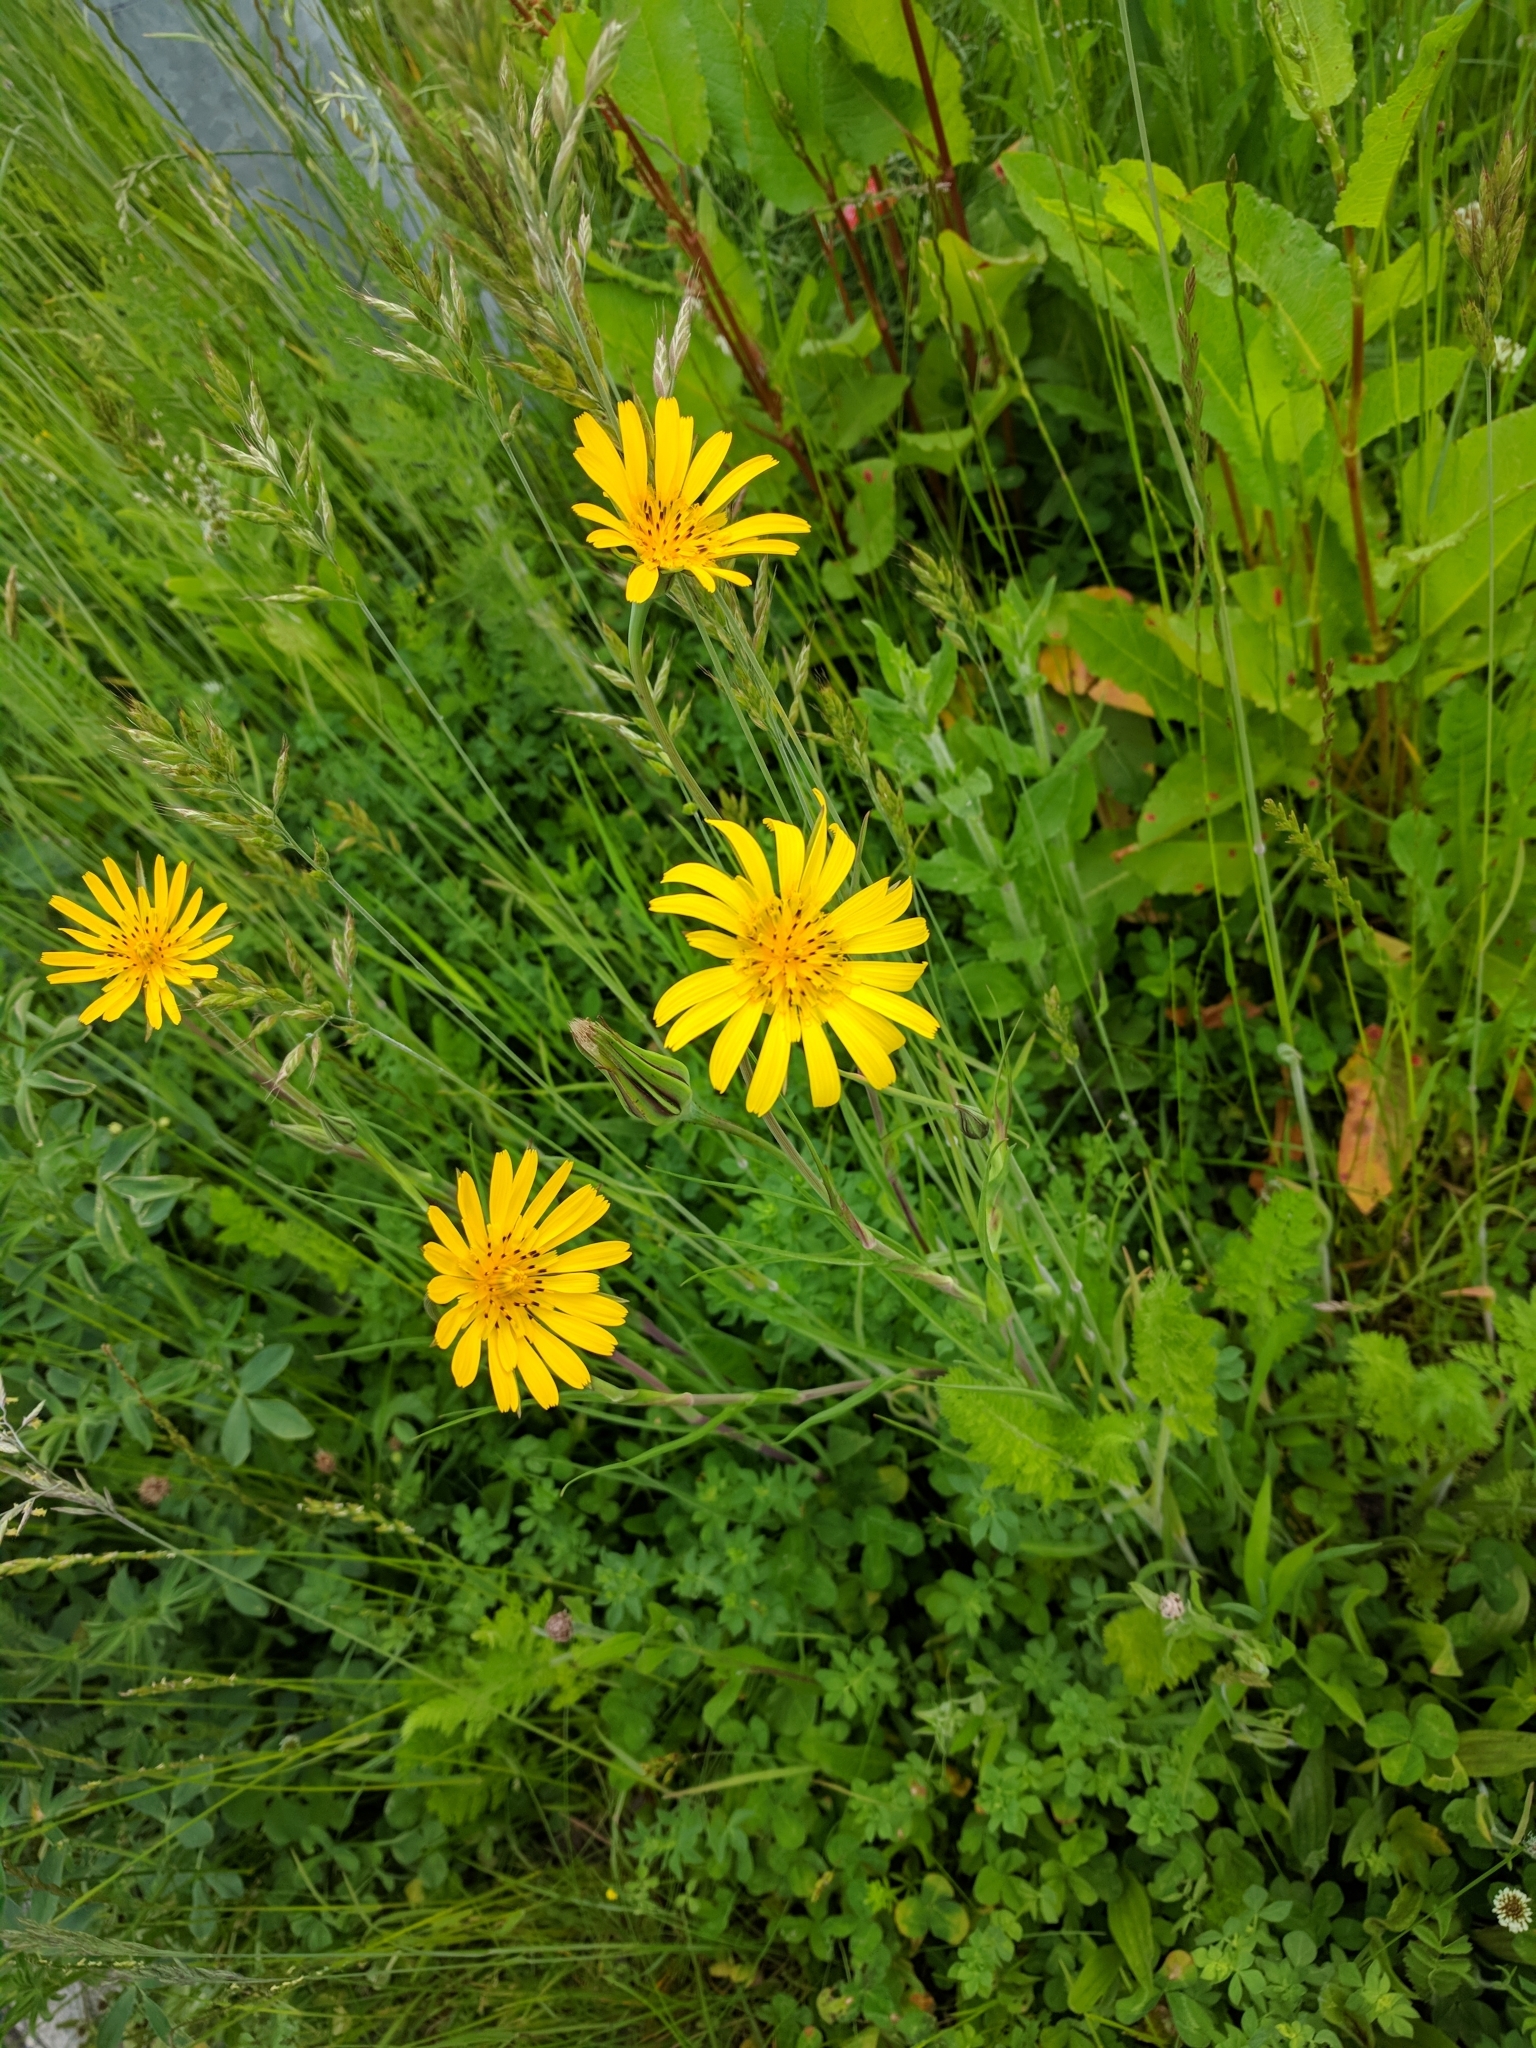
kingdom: Plantae
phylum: Tracheophyta
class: Magnoliopsida
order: Asterales
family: Asteraceae
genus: Tragopogon
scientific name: Tragopogon pratensis
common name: Goat's-beard
